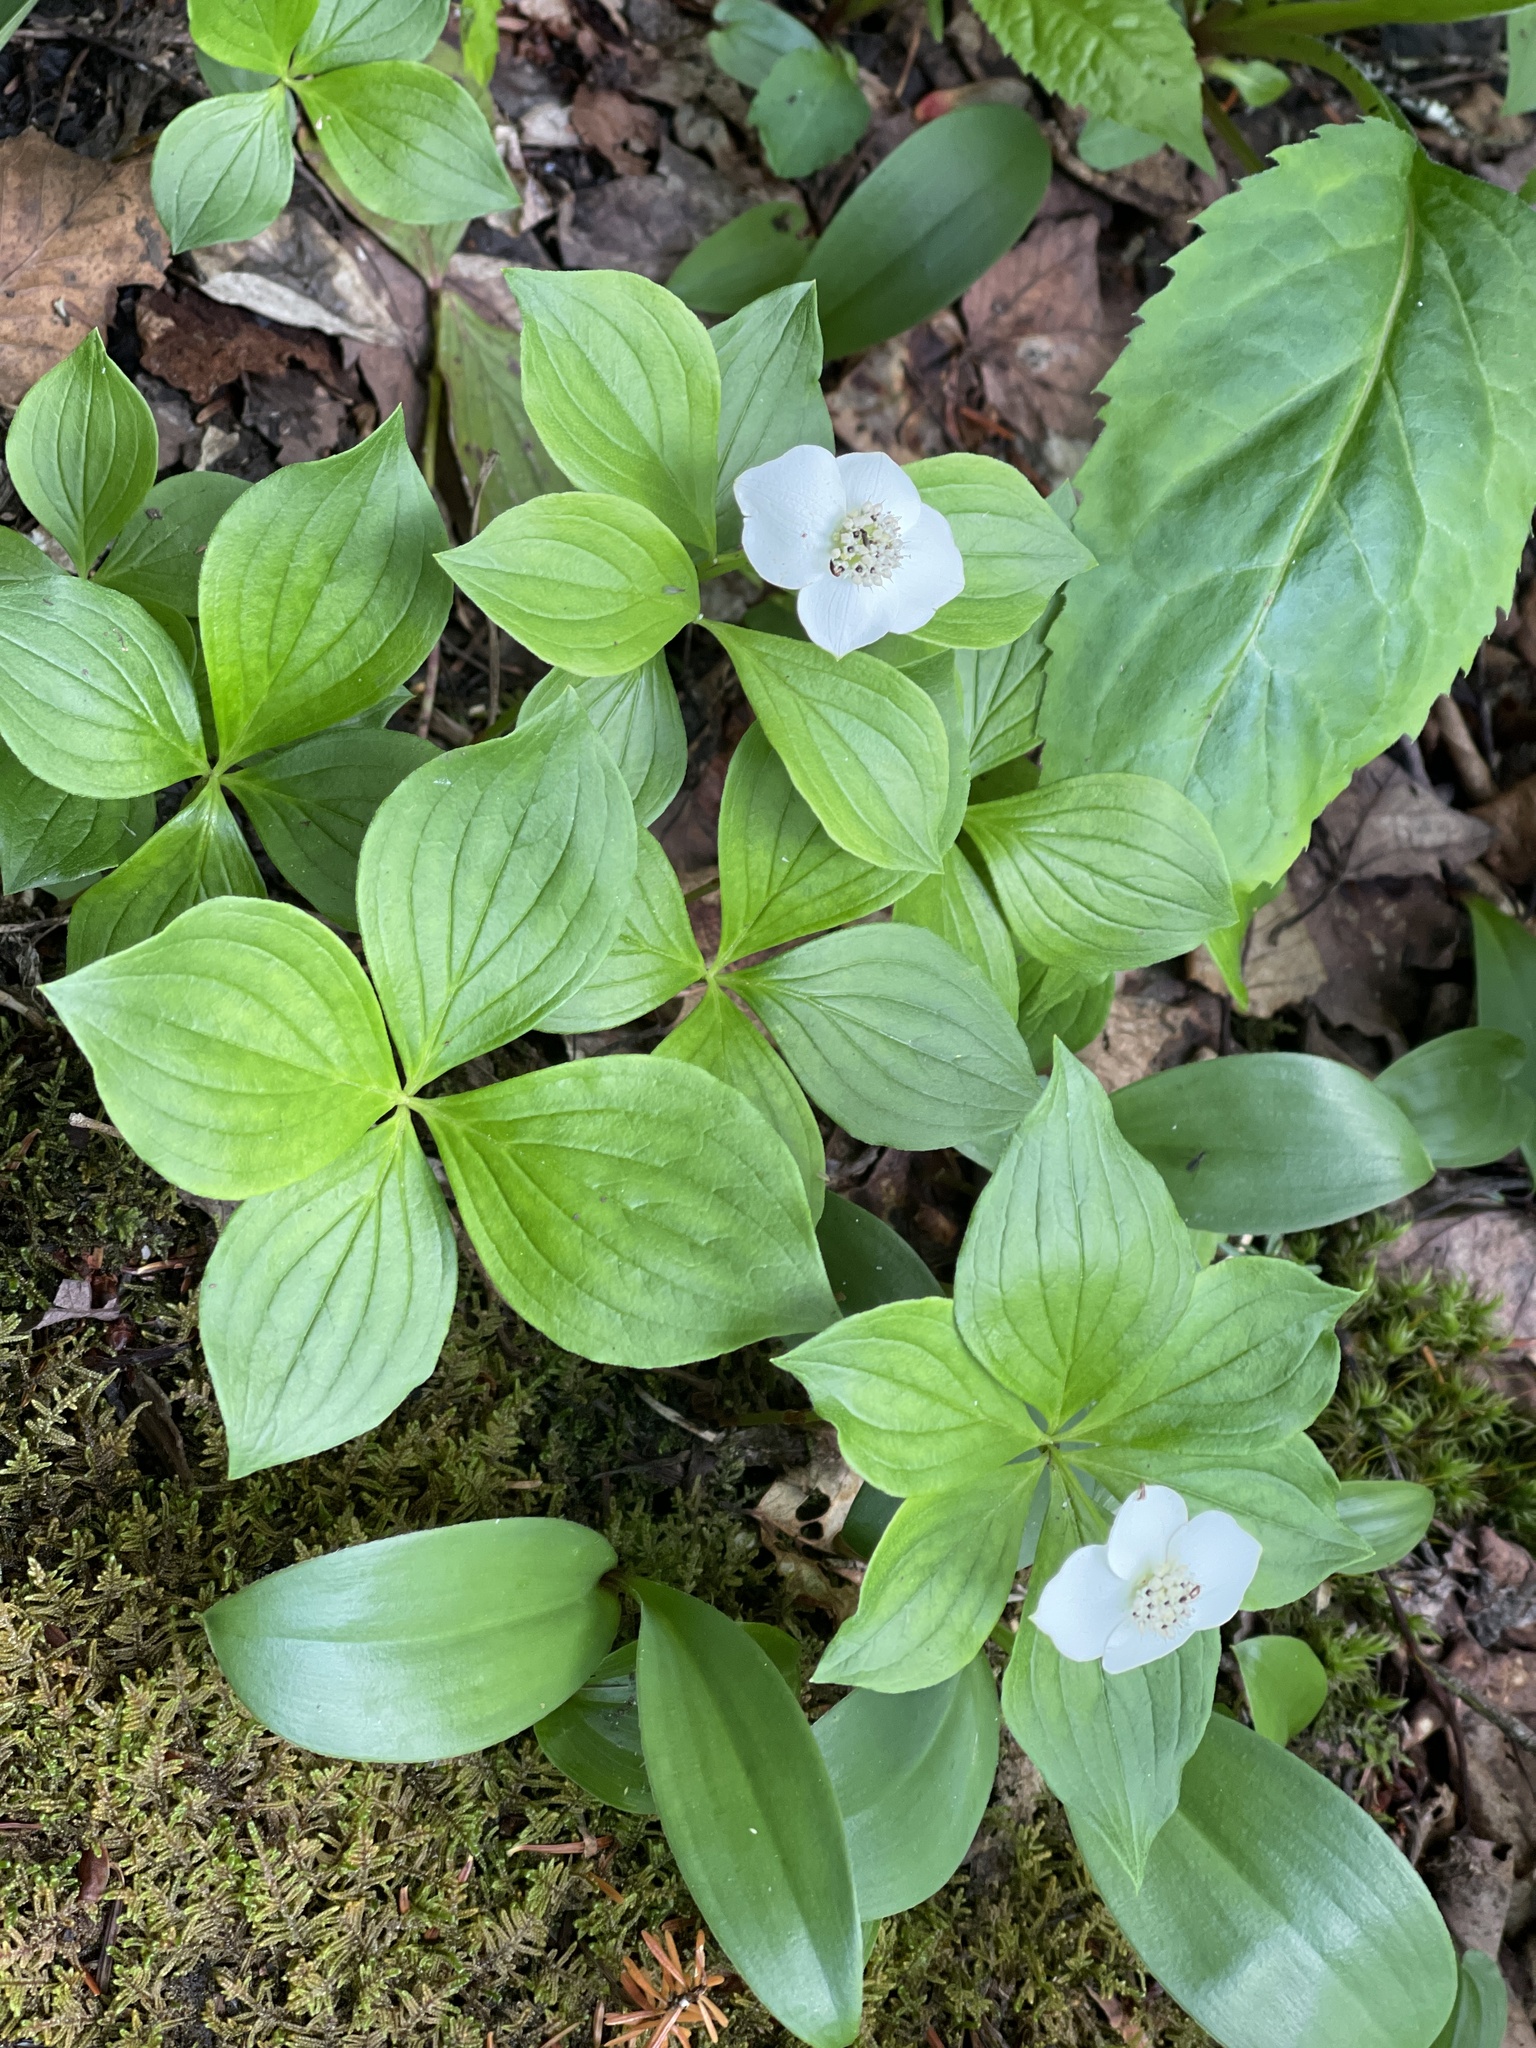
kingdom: Plantae
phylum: Tracheophyta
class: Magnoliopsida
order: Cornales
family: Cornaceae
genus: Cornus
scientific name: Cornus canadensis
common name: Creeping dogwood
